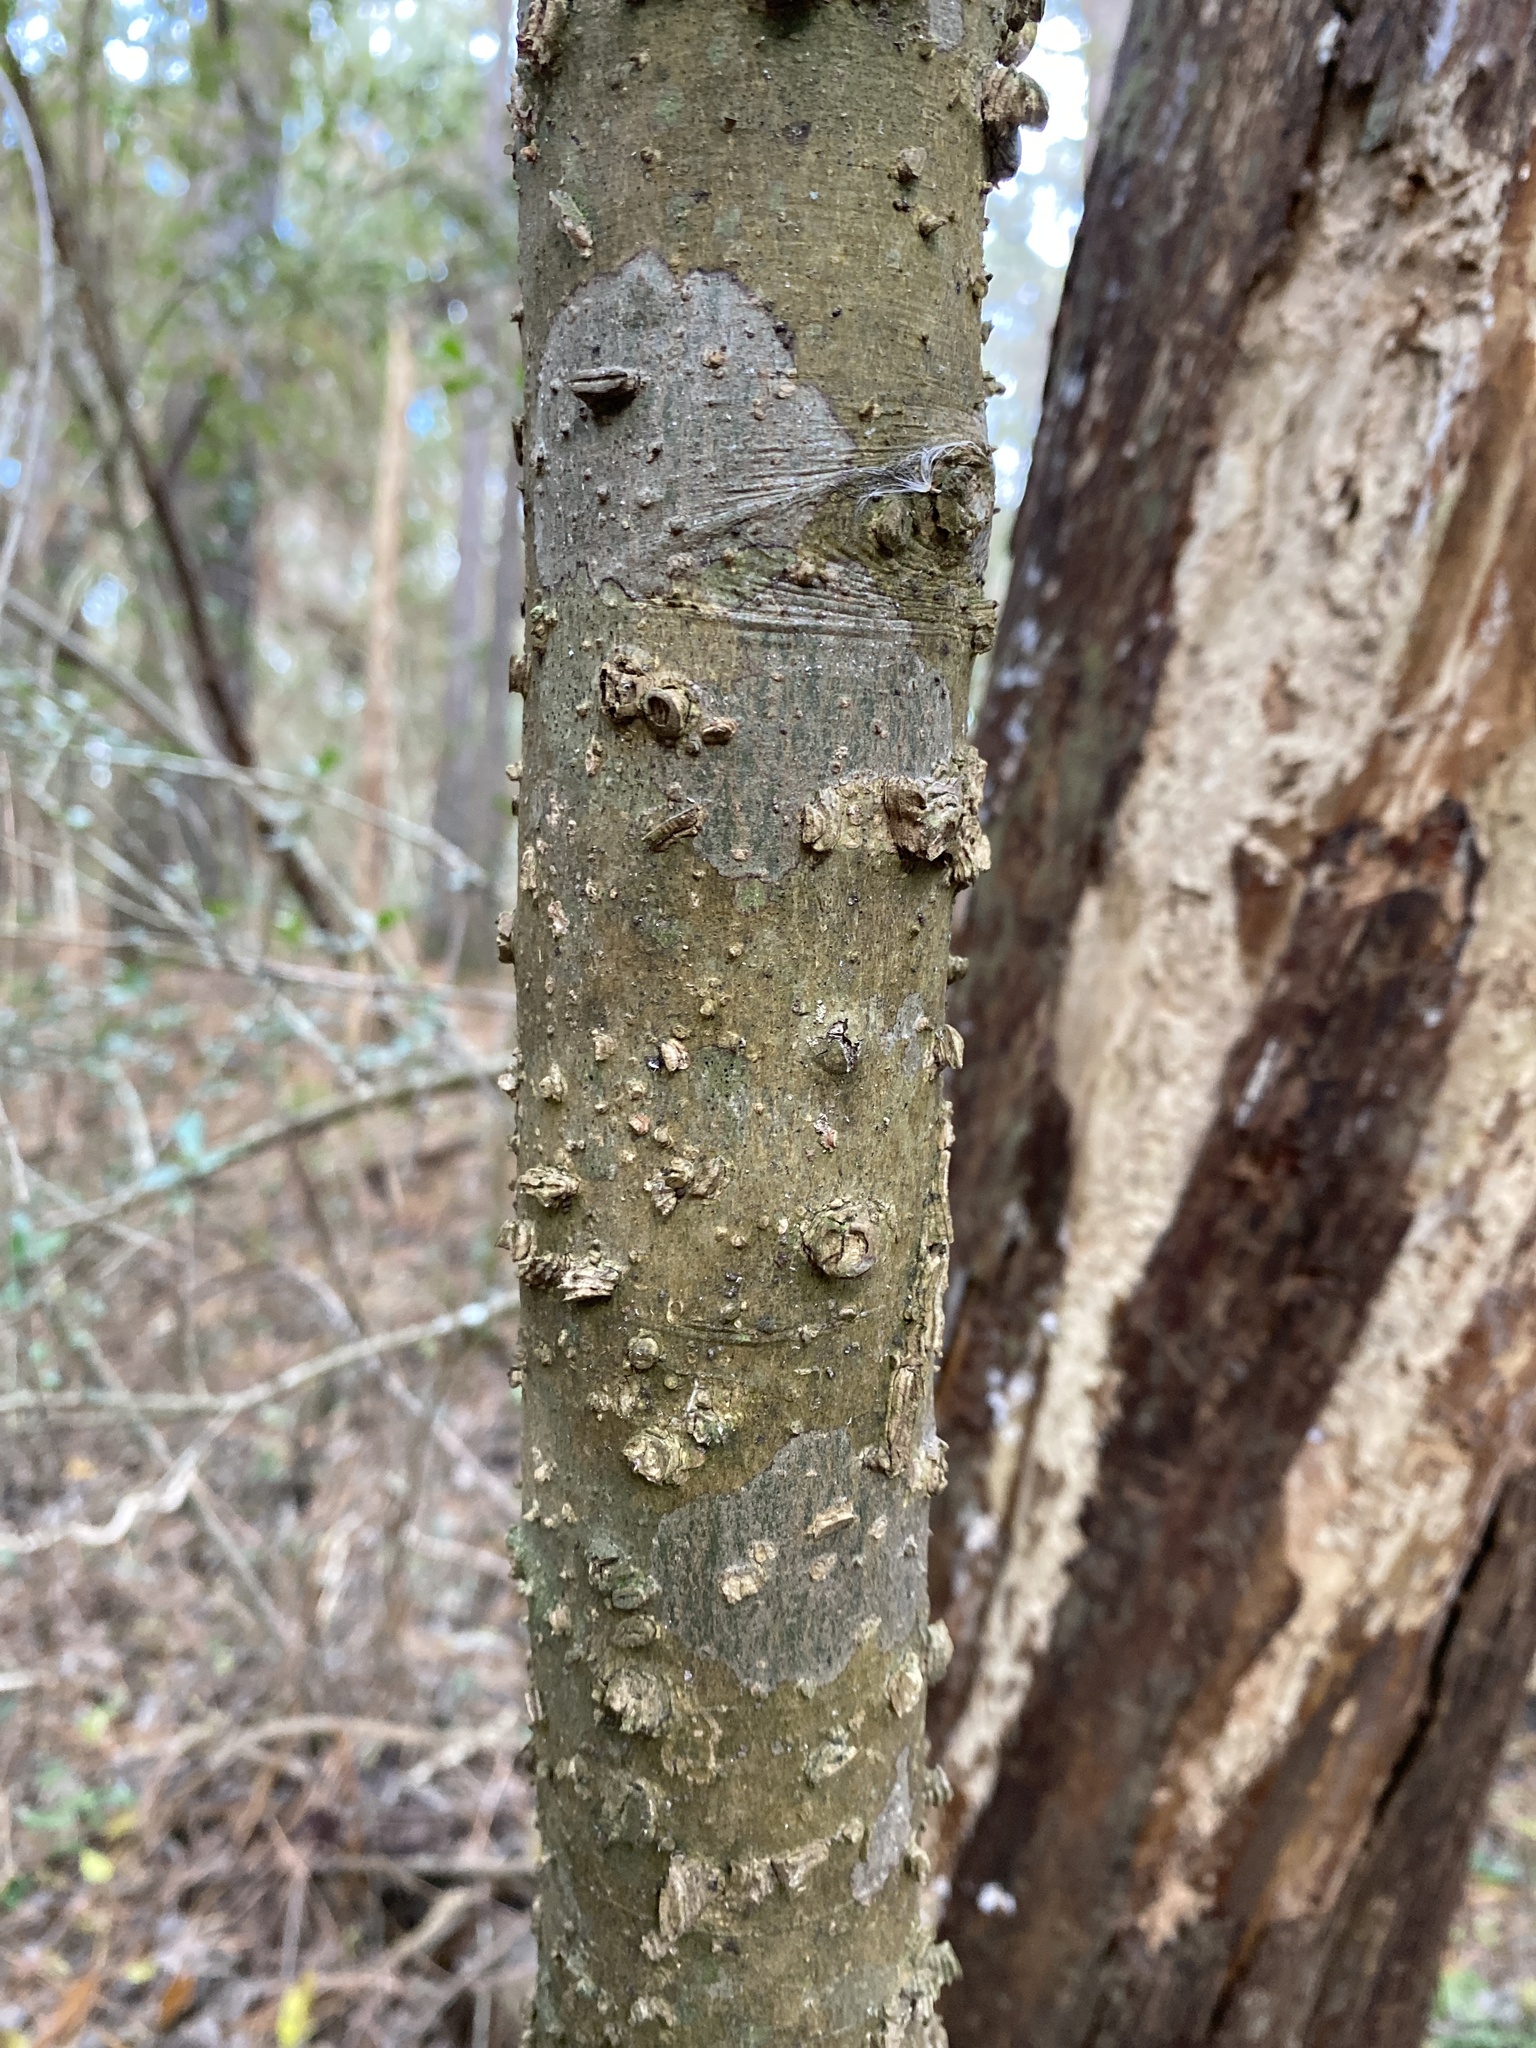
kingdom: Plantae
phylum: Tracheophyta
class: Magnoliopsida
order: Rosales
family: Cannabaceae
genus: Celtis
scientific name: Celtis laevigata
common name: Sugarberry
